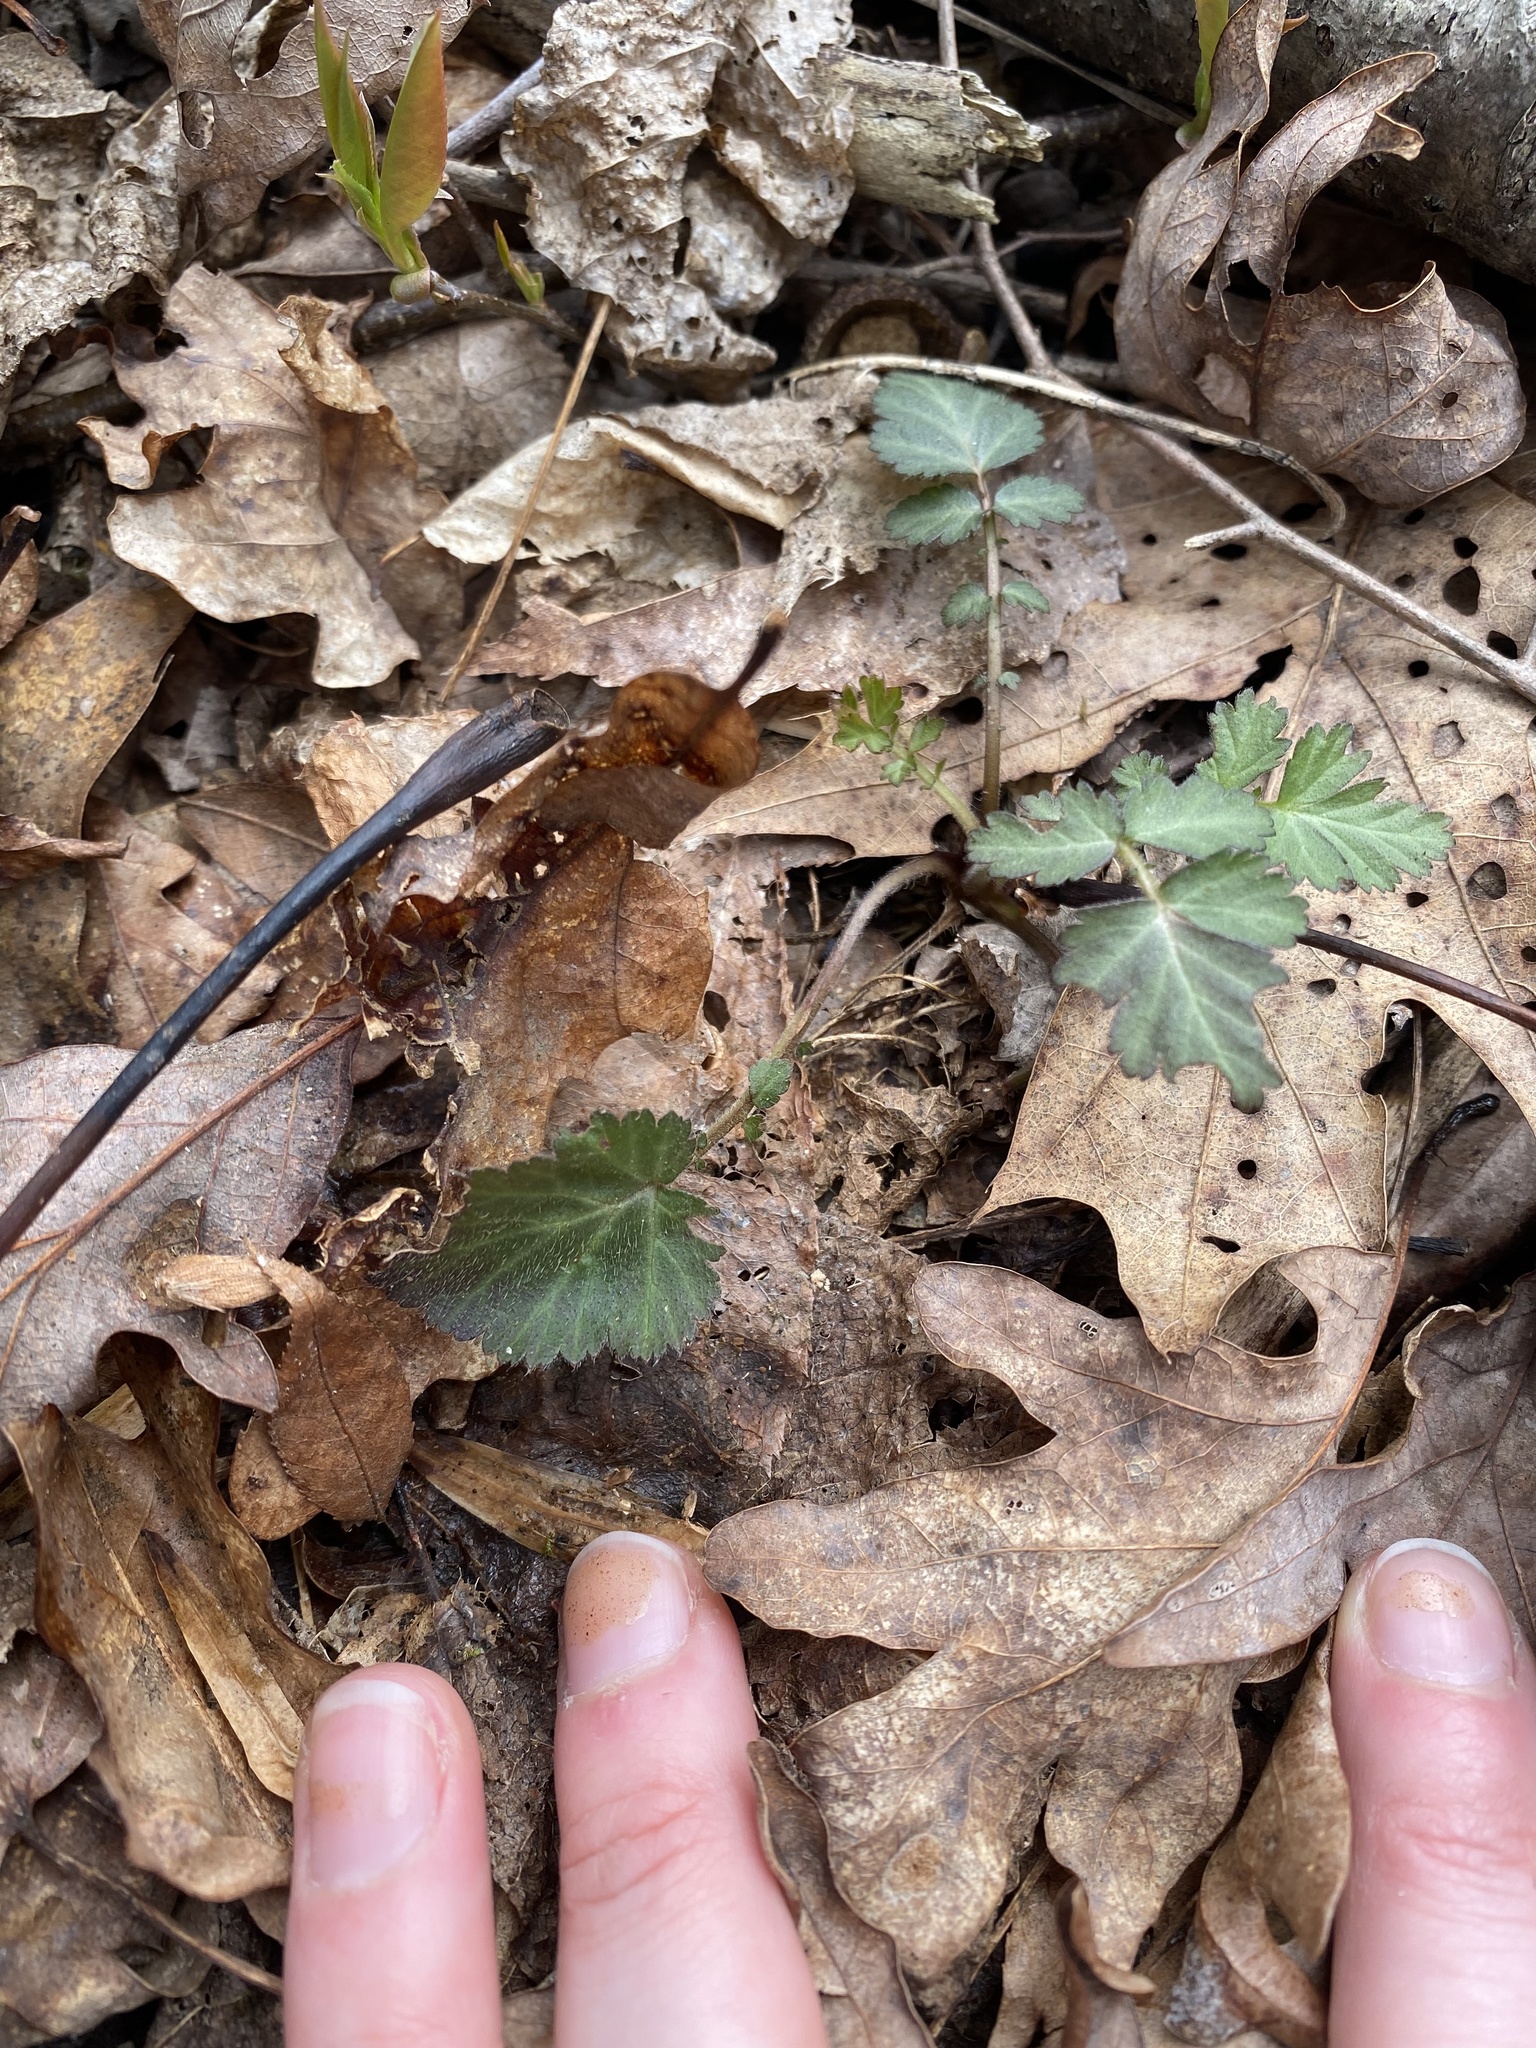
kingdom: Plantae
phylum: Tracheophyta
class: Magnoliopsida
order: Rosales
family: Rosaceae
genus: Geum
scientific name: Geum canadense
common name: White avens
